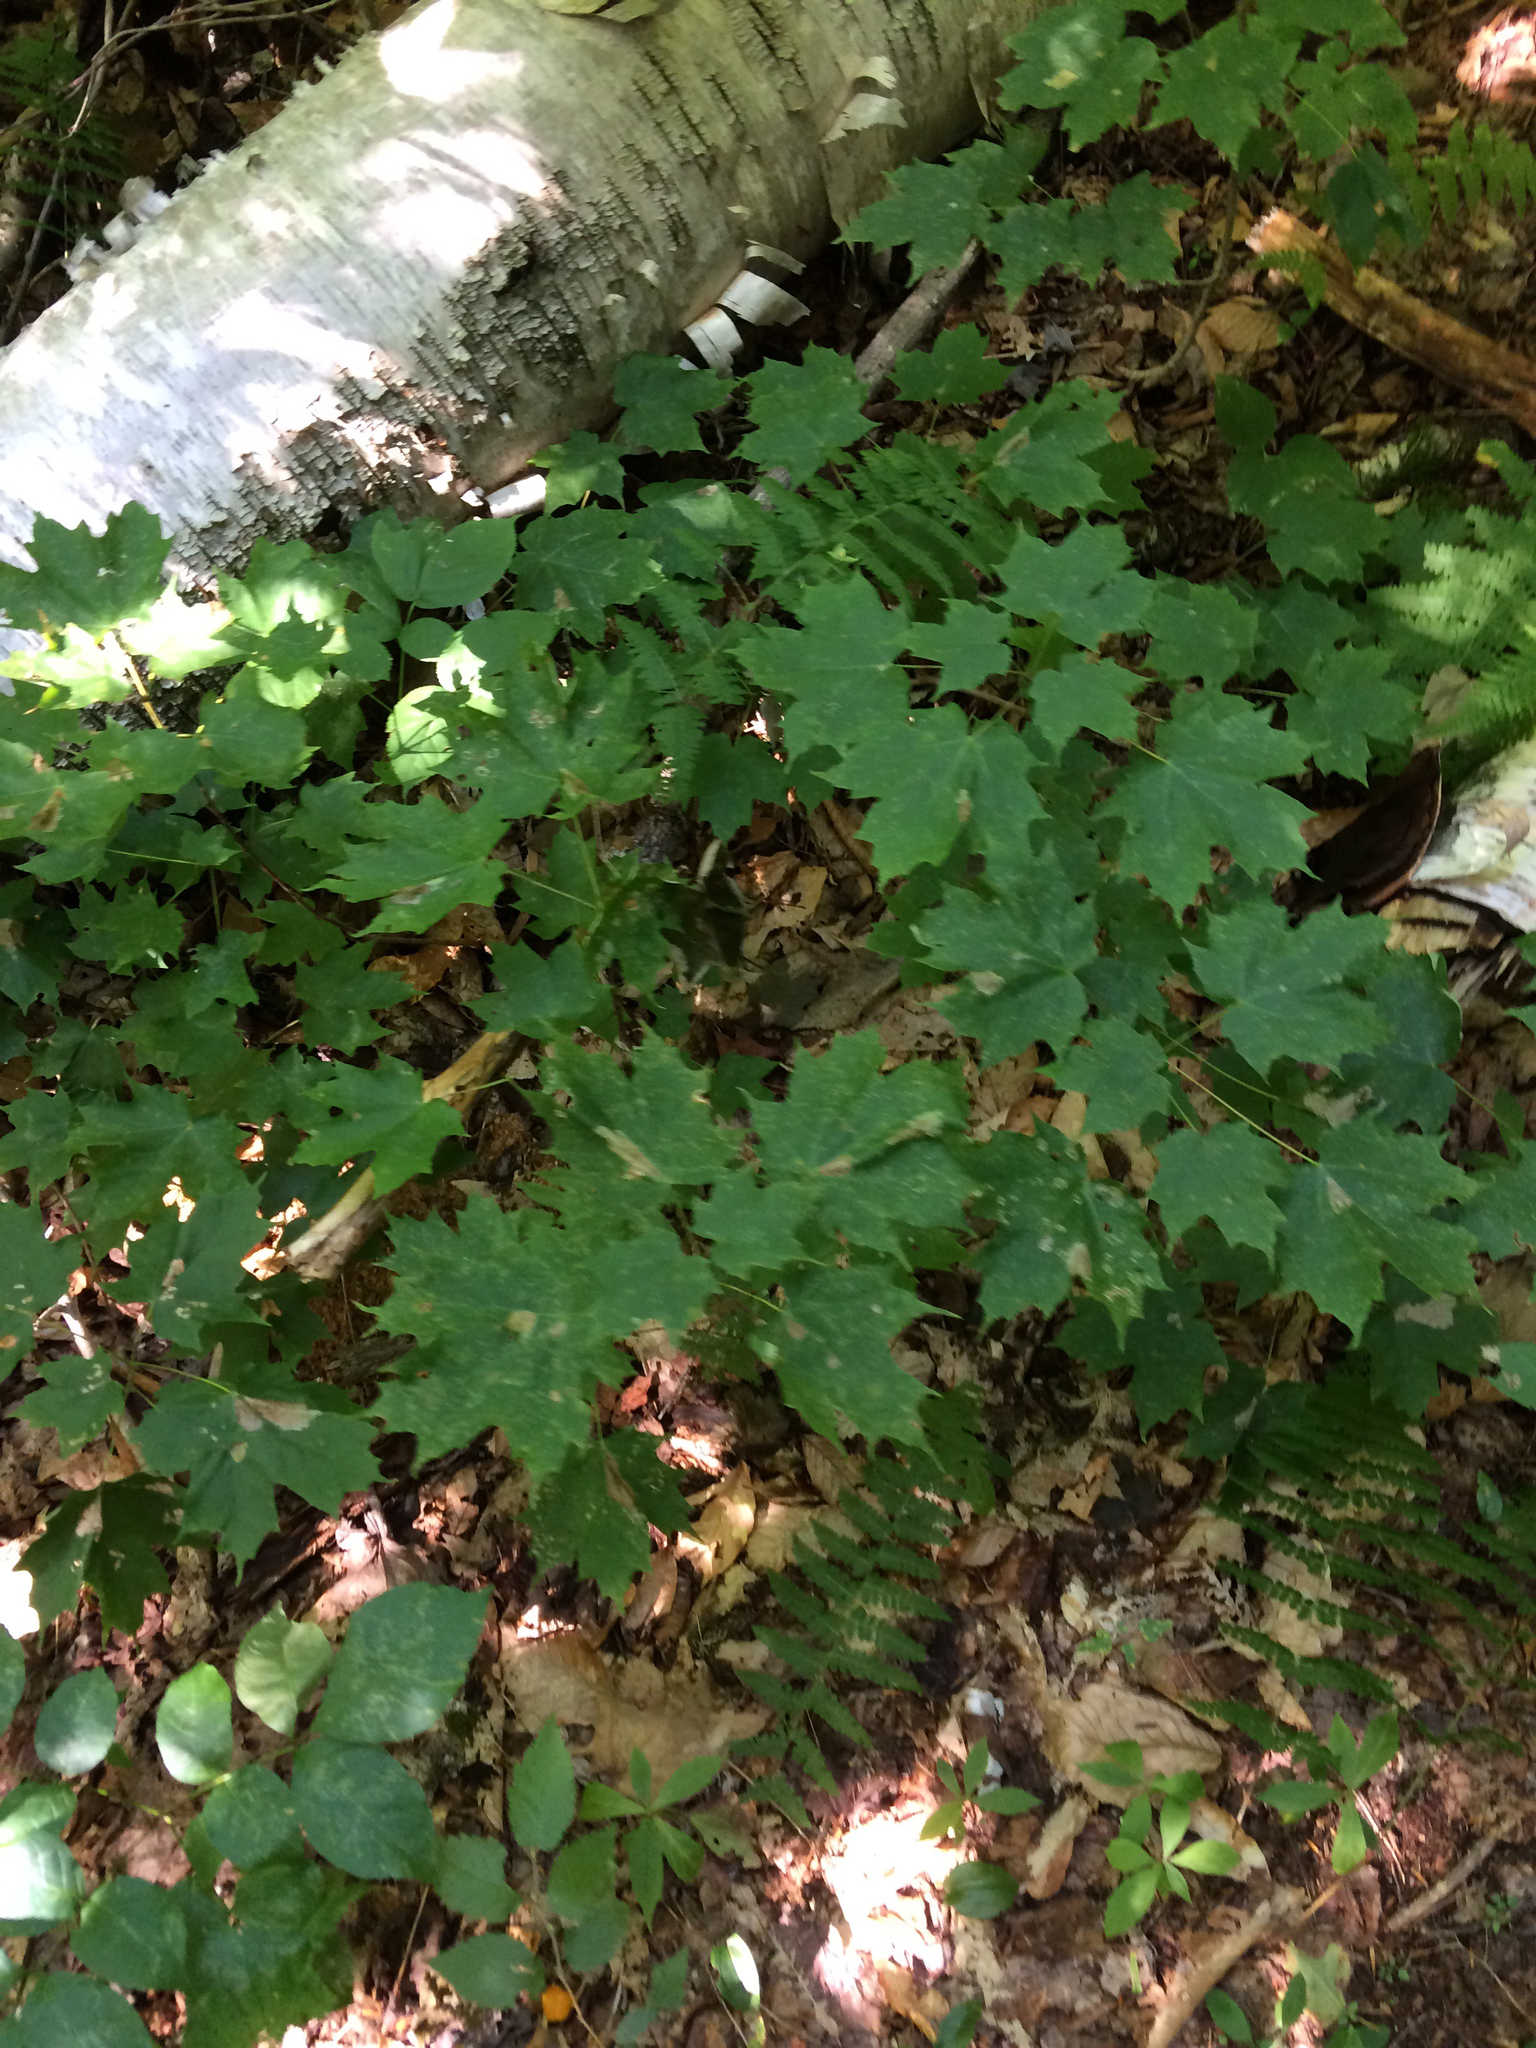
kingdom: Plantae
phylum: Tracheophyta
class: Magnoliopsida
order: Sapindales
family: Sapindaceae
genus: Acer
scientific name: Acer saccharum
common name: Sugar maple
